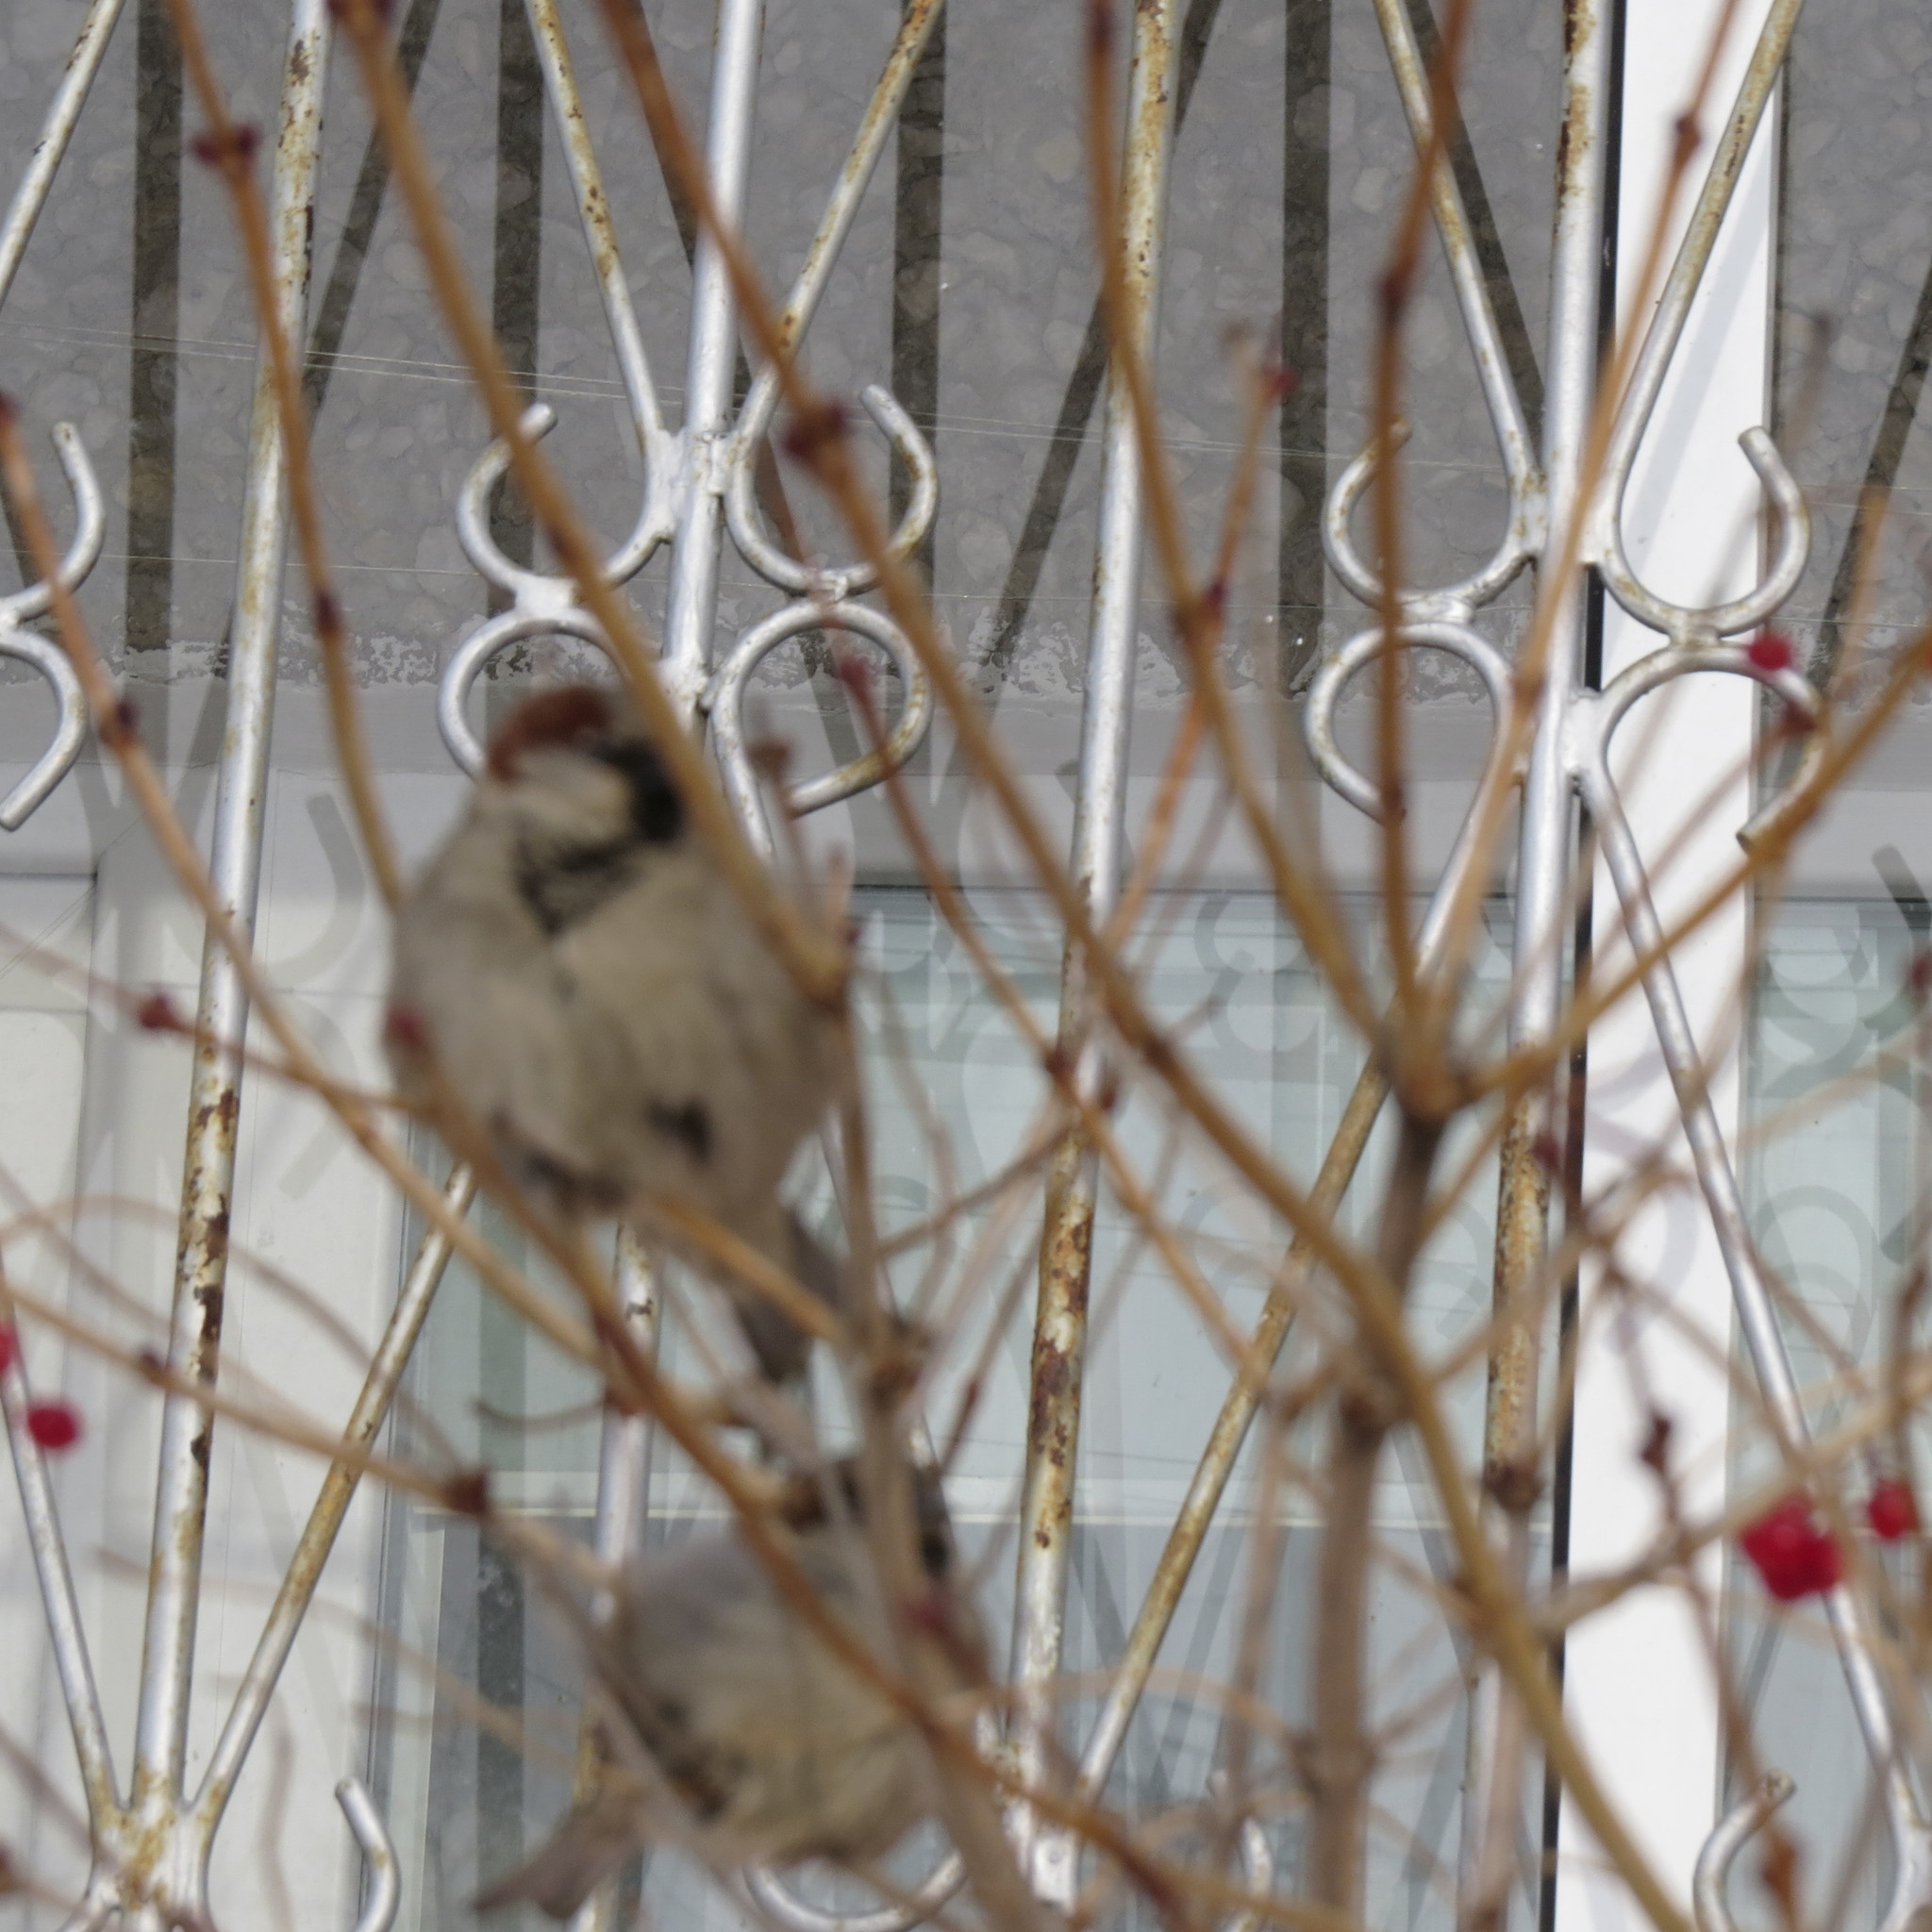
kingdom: Animalia
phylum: Chordata
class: Aves
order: Passeriformes
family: Passeridae
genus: Passer
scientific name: Passer domesticus
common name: House sparrow
